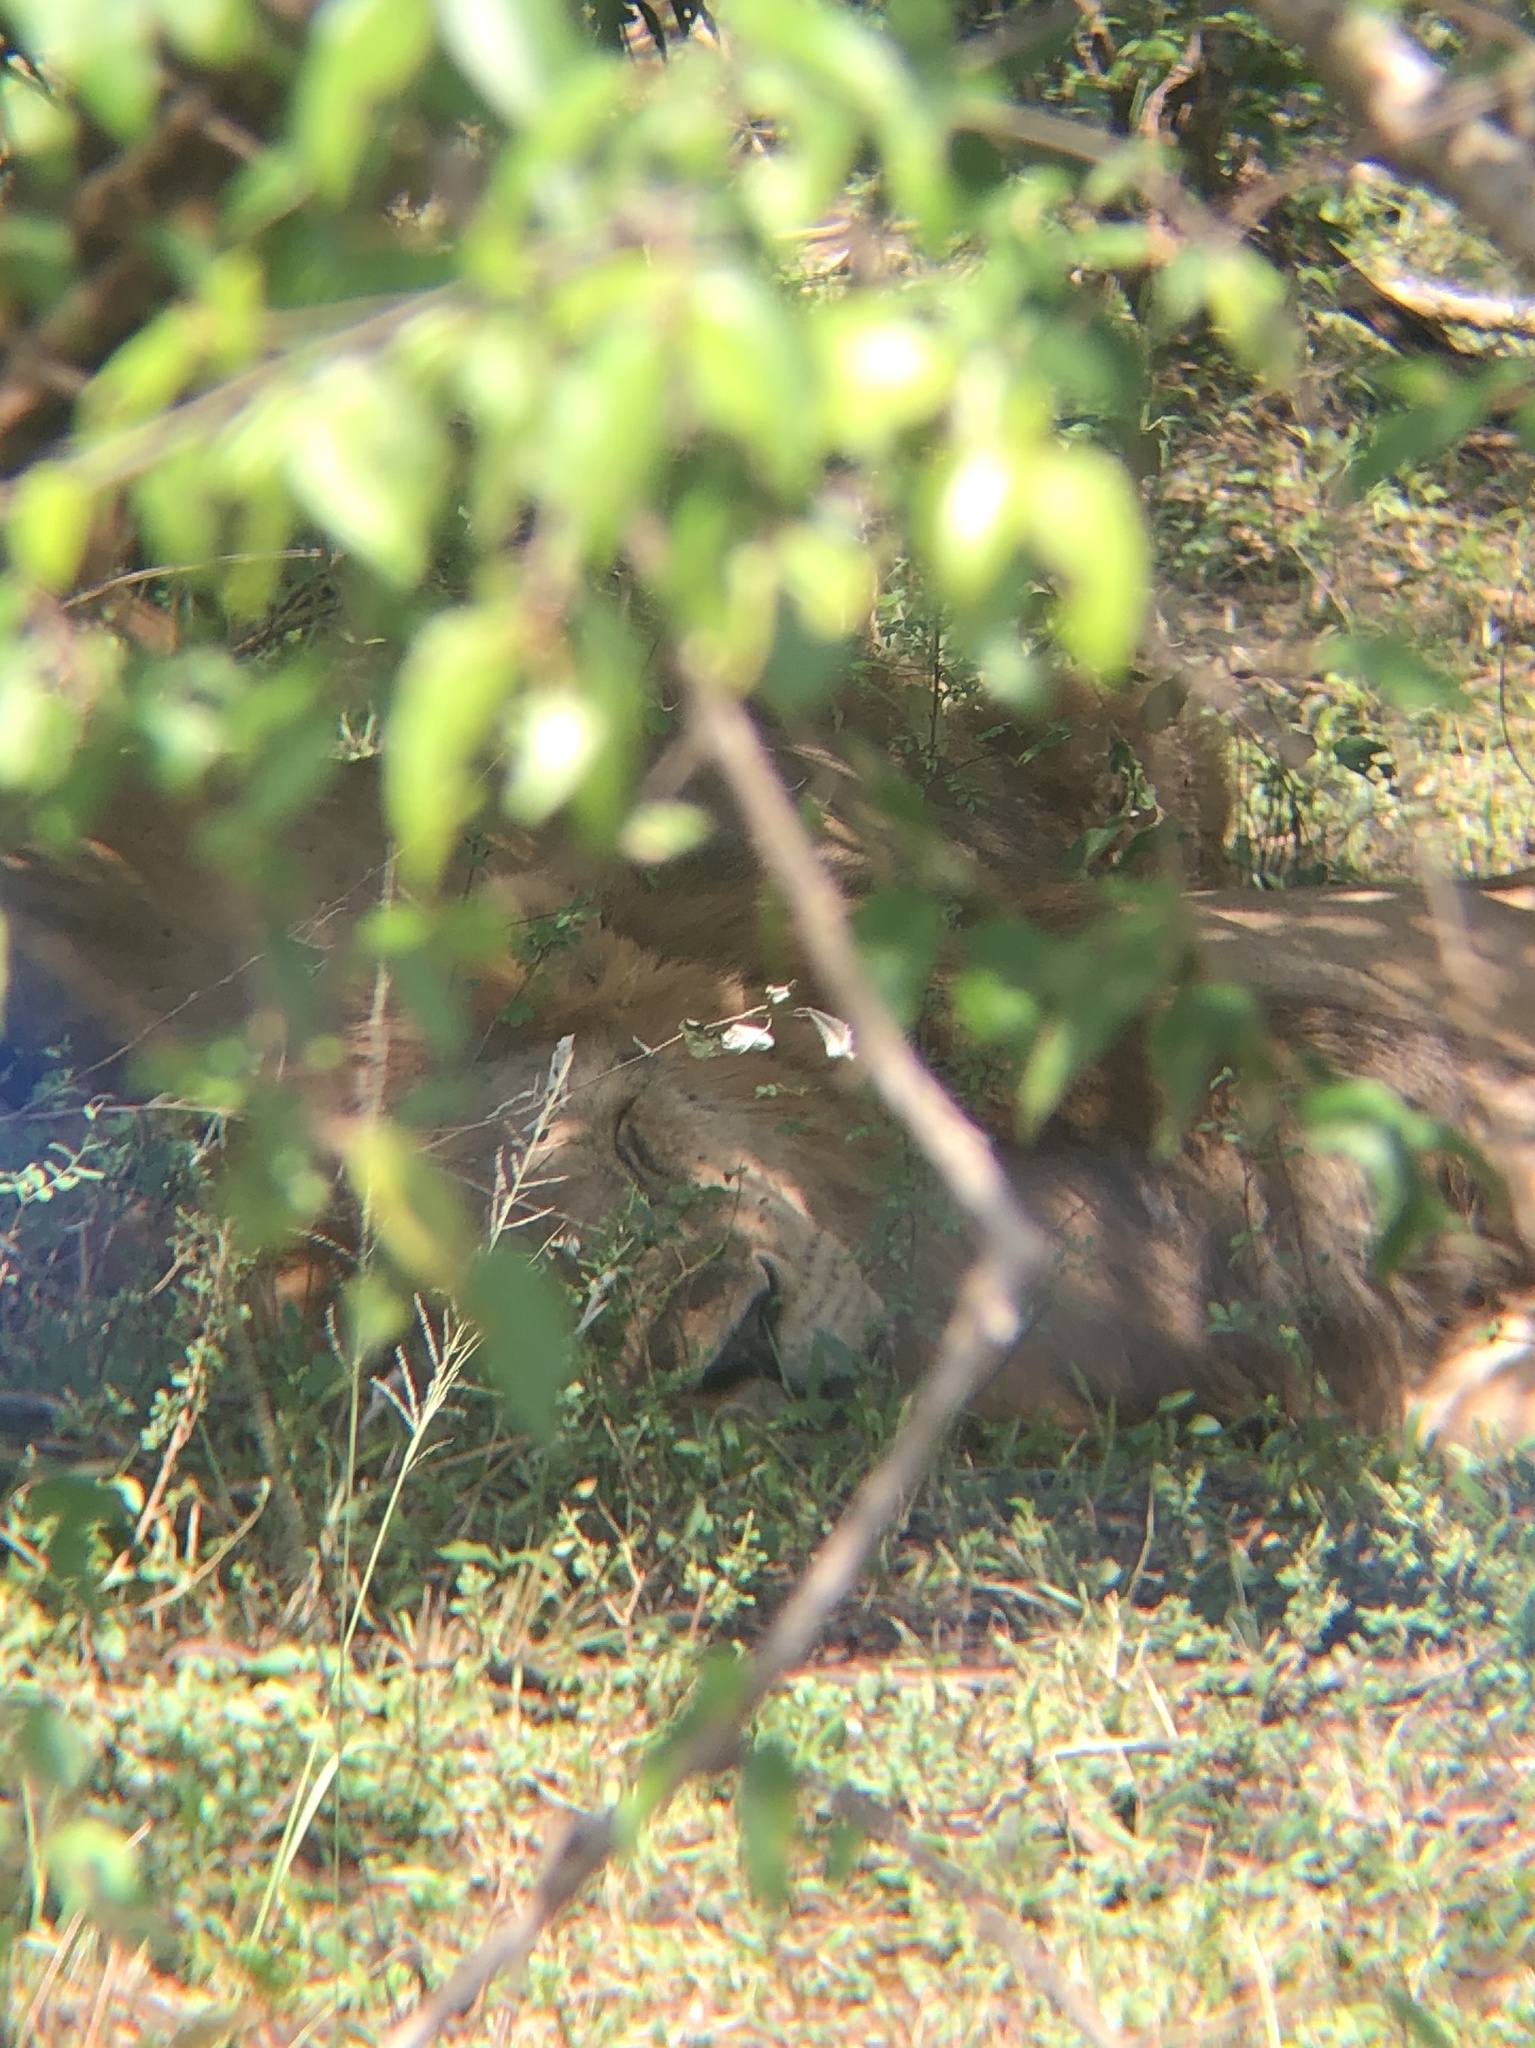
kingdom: Animalia
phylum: Chordata
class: Mammalia
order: Carnivora
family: Felidae
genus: Panthera
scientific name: Panthera leo
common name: Lion
